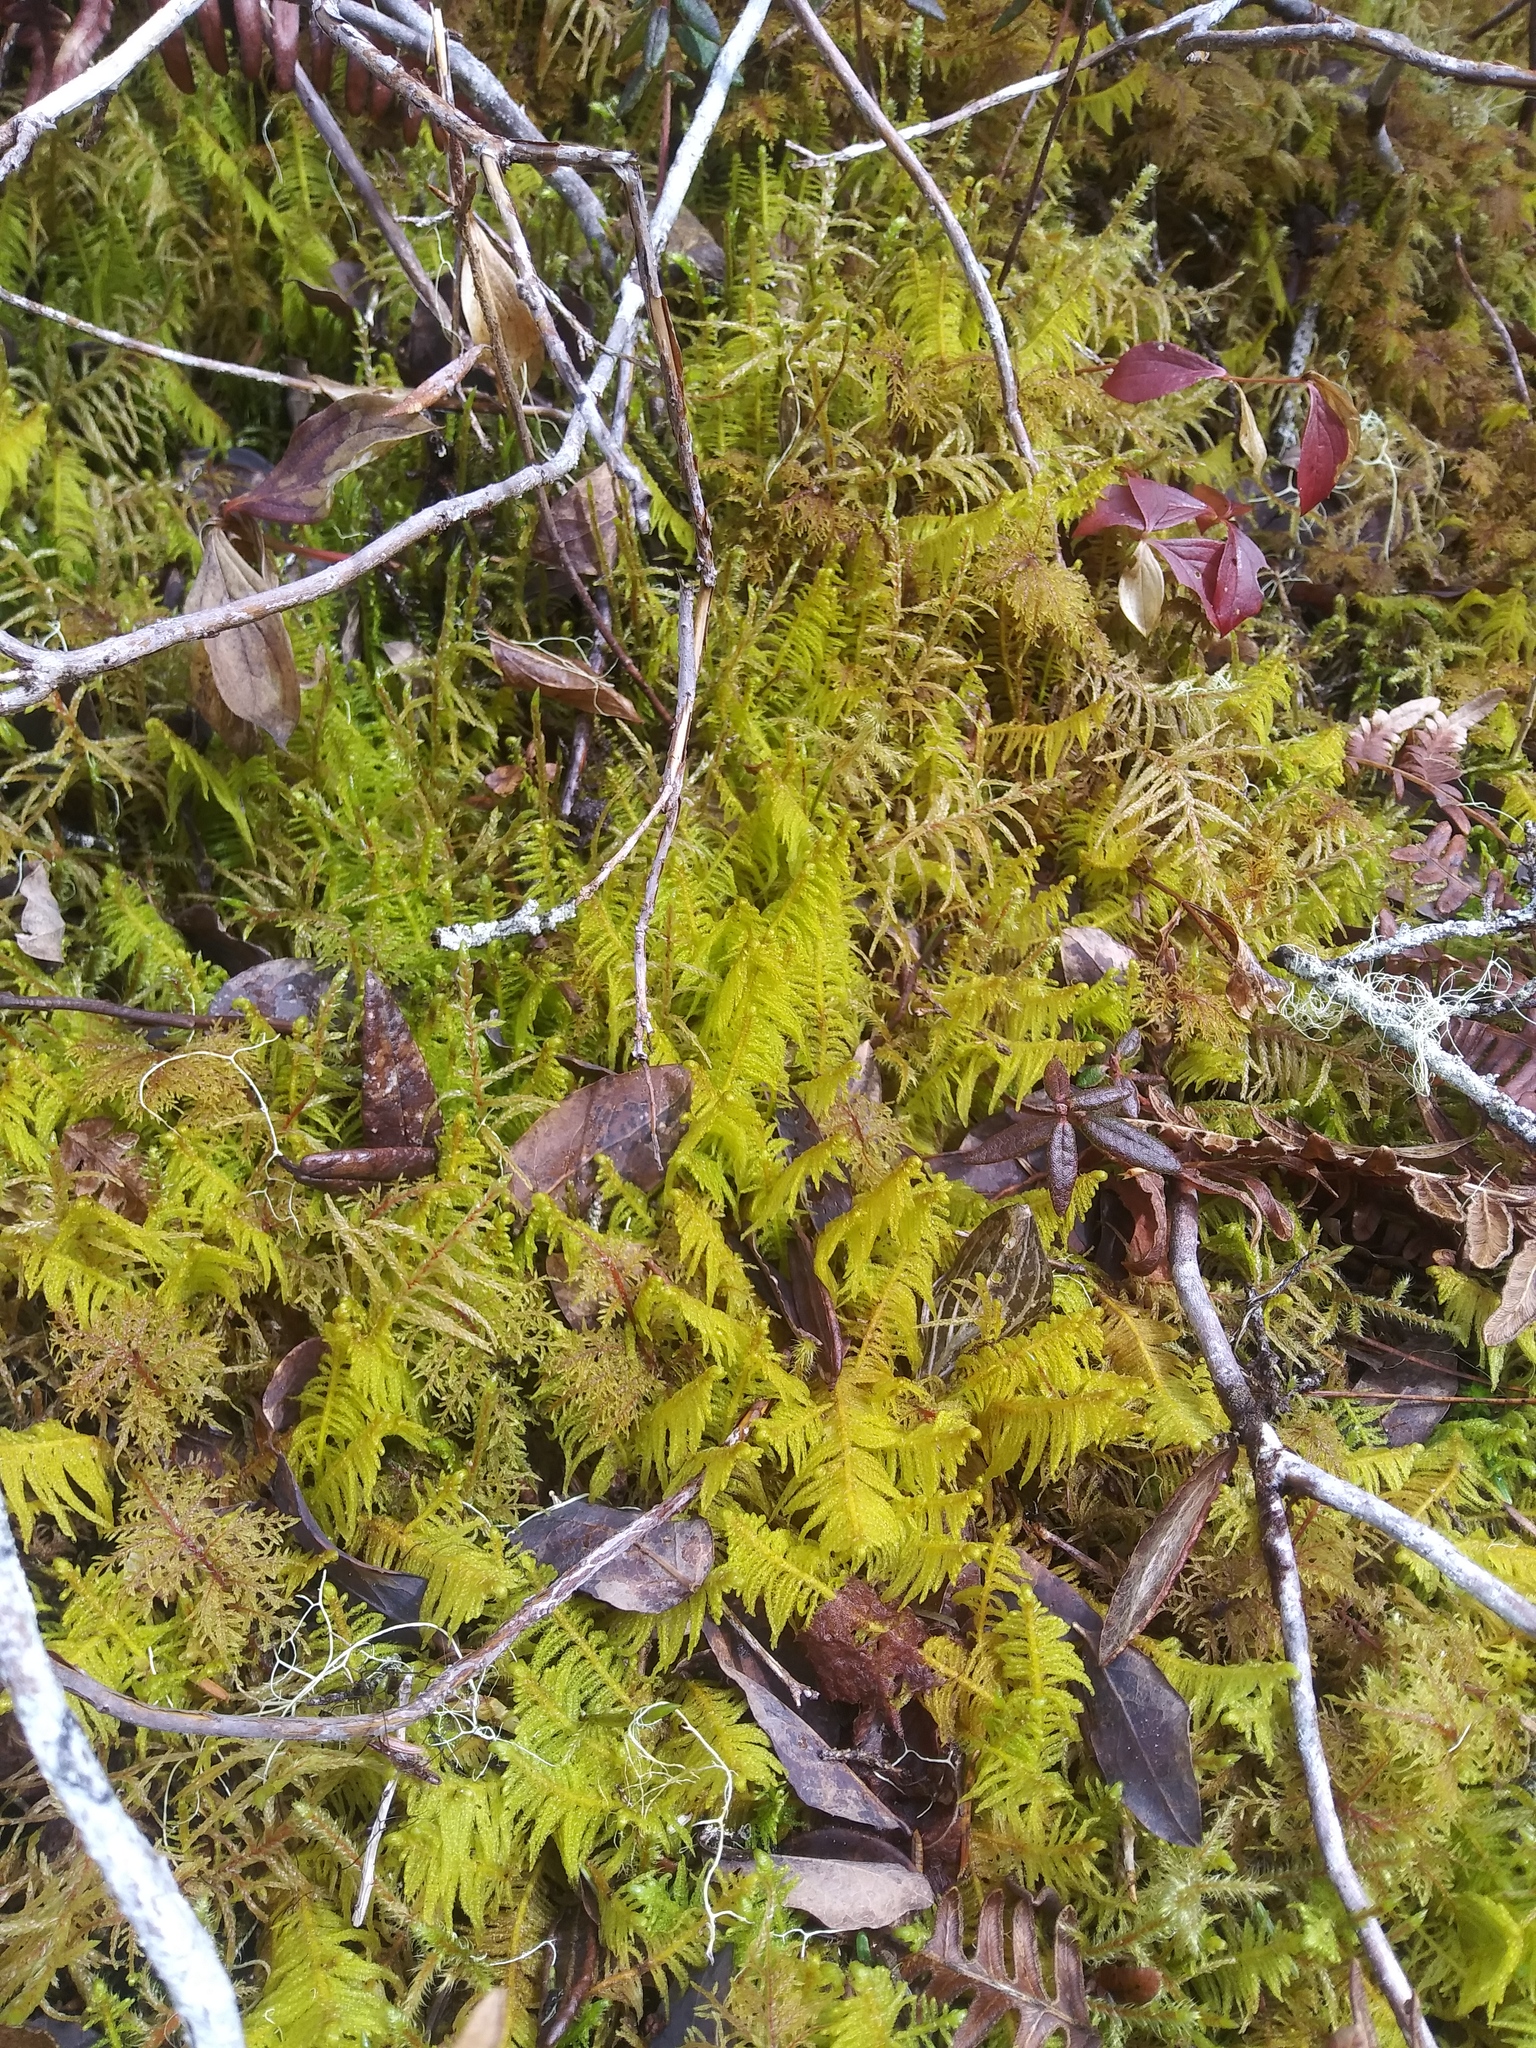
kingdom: Plantae
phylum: Bryophyta
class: Bryopsida
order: Hypnales
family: Pylaisiaceae
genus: Ptilium
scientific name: Ptilium crista-castrensis
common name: Knight's plume moss
